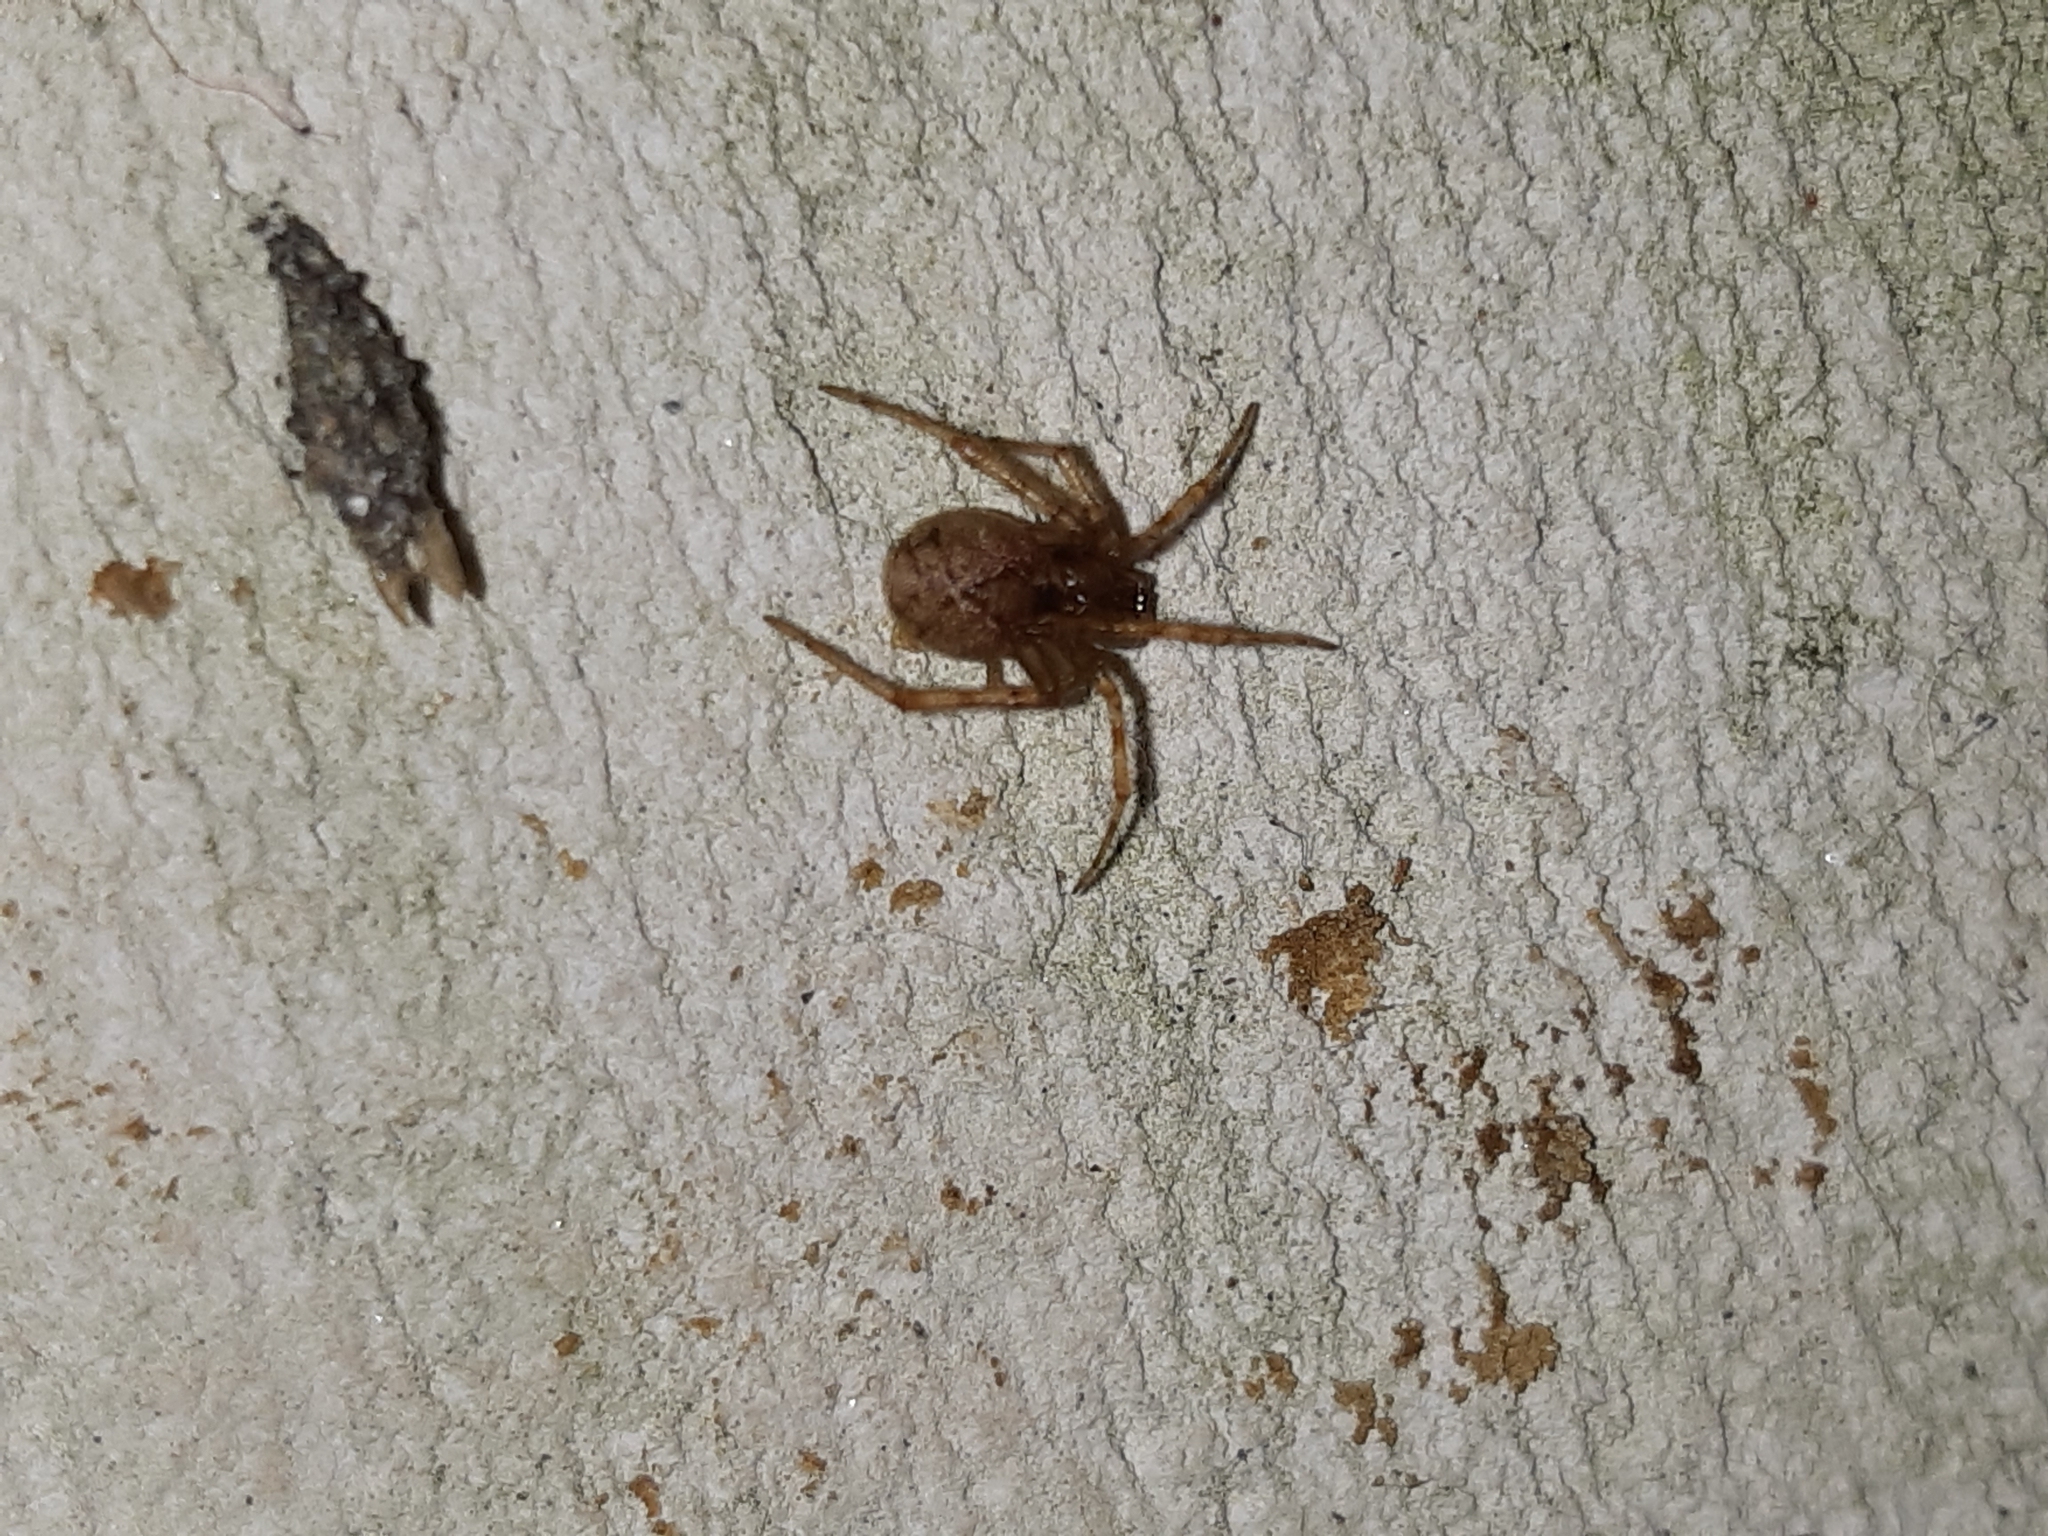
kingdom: Animalia
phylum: Arthropoda
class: Arachnida
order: Araneae
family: Theridiidae
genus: Cryptachaea
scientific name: Cryptachaea veruculata
